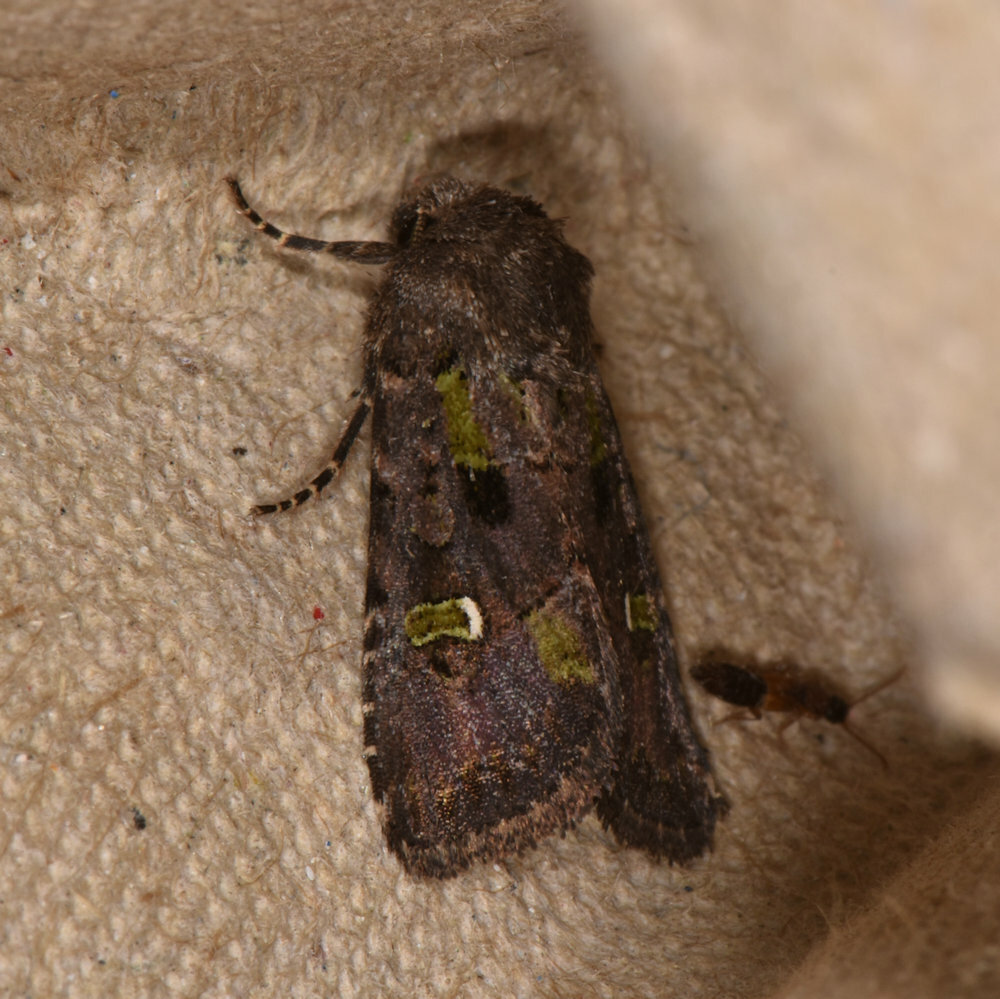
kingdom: Animalia
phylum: Arthropoda
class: Insecta
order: Lepidoptera
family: Noctuidae
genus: Lacinipolia
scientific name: Lacinipolia renigera
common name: Kidney-spotted minor
